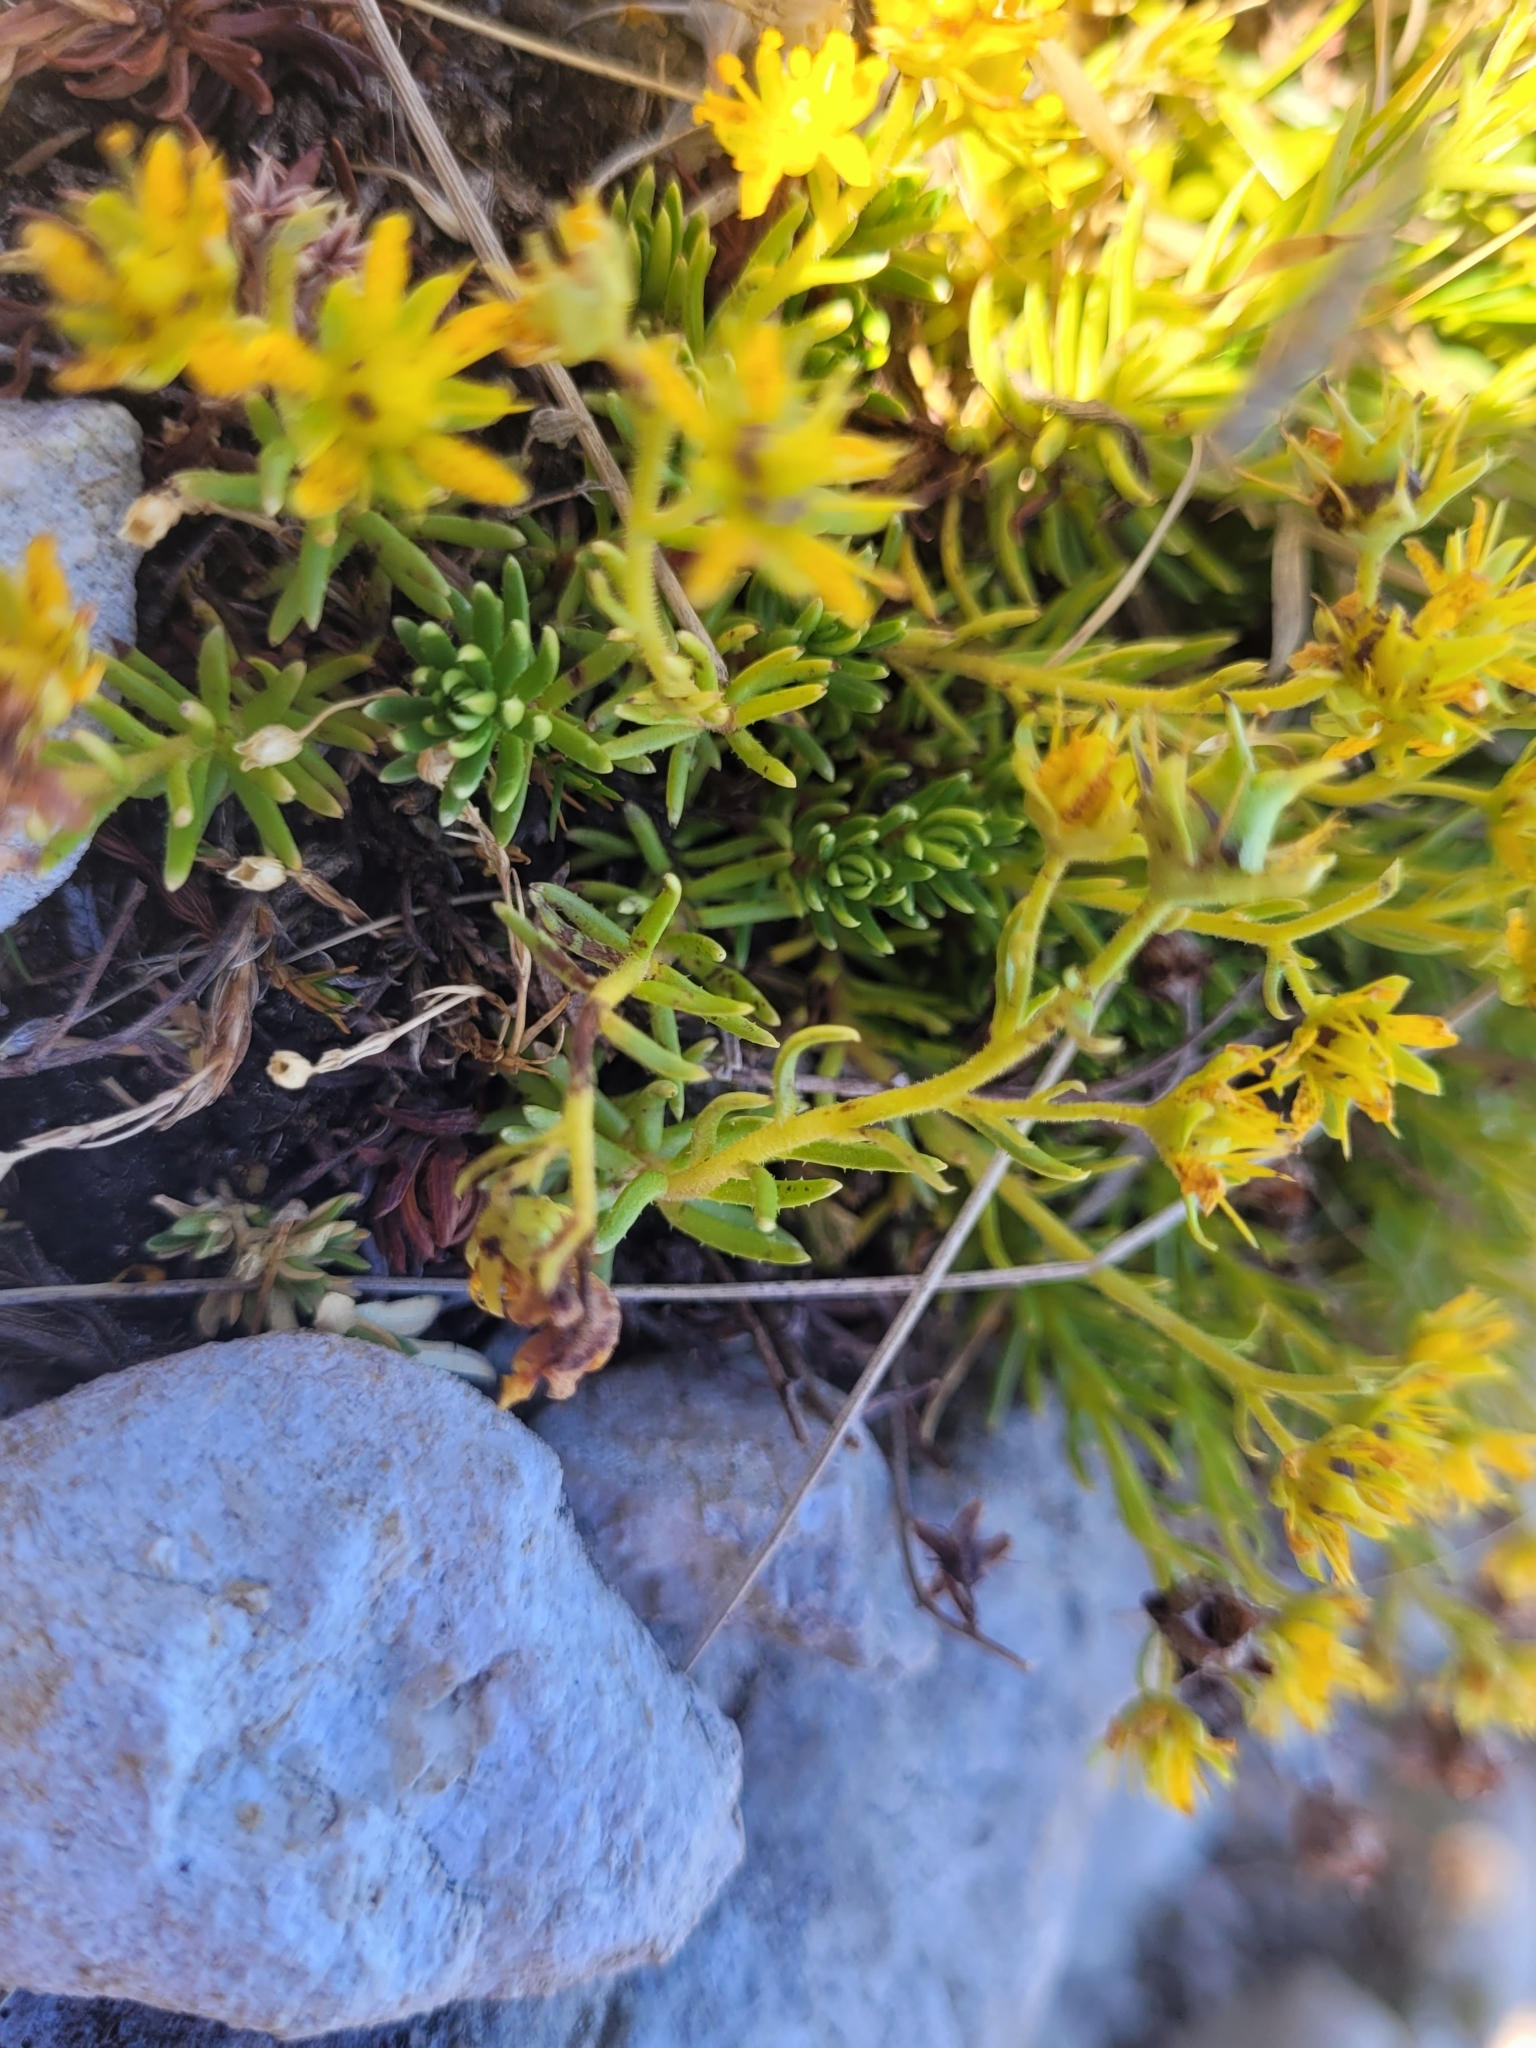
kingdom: Plantae
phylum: Tracheophyta
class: Magnoliopsida
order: Saxifragales
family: Saxifragaceae
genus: Saxifraga
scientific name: Saxifraga aizoides
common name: Yellow mountain saxifrage
